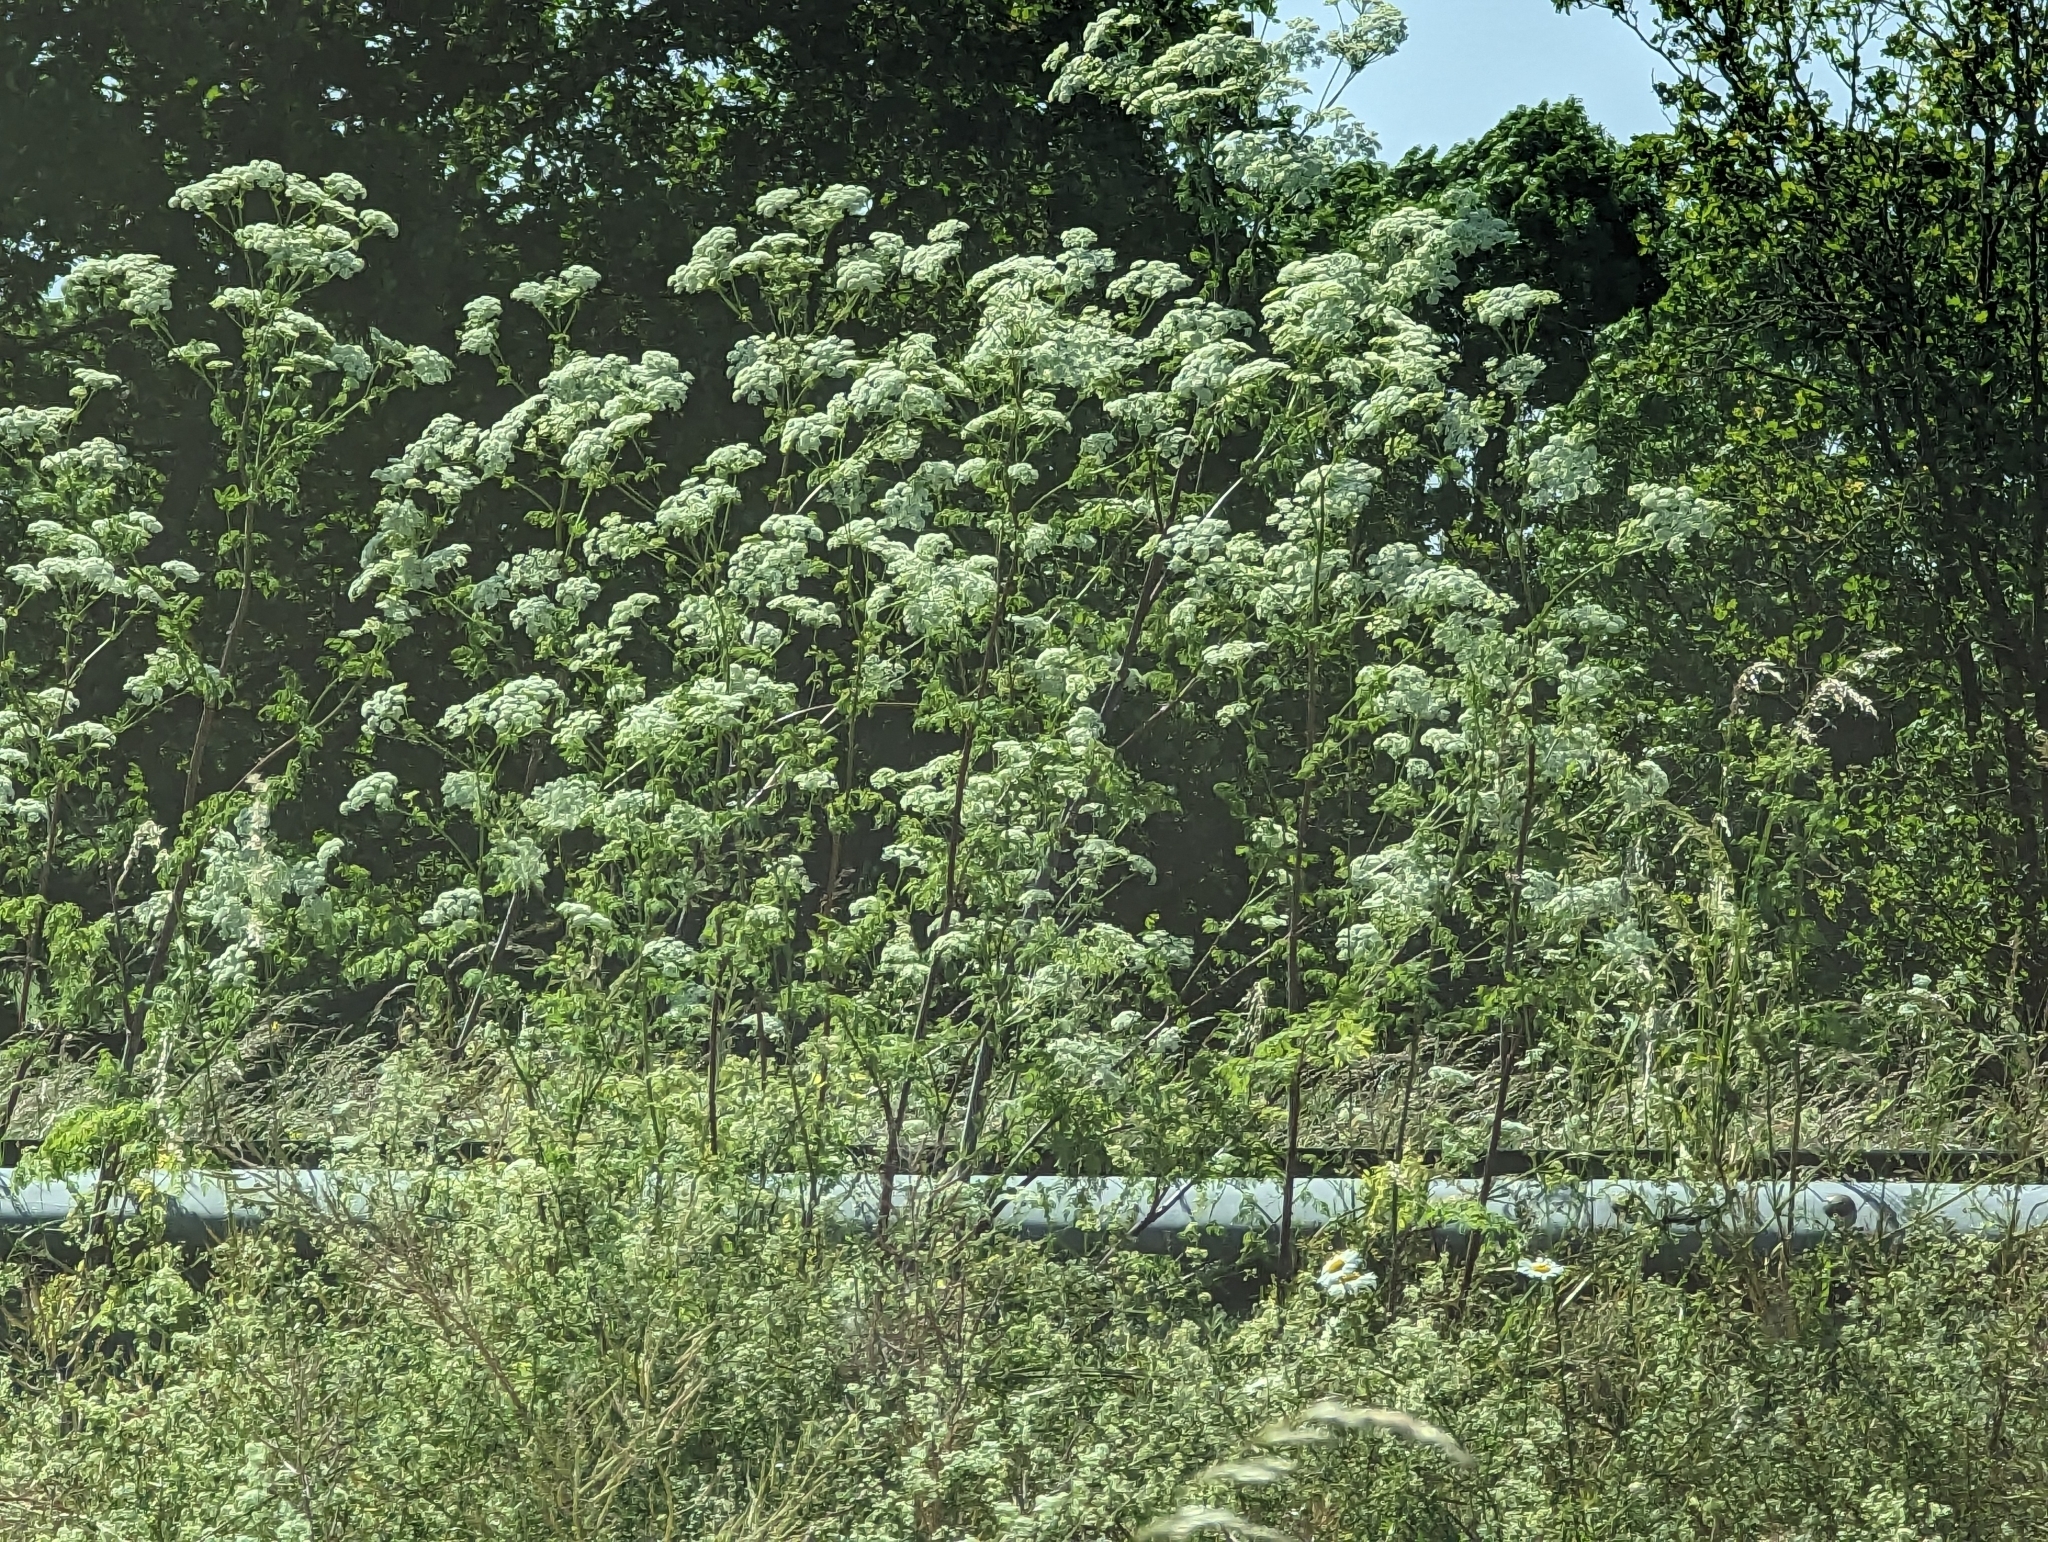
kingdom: Plantae
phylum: Tracheophyta
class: Magnoliopsida
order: Apiales
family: Apiaceae
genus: Conium
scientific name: Conium maculatum
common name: Hemlock
